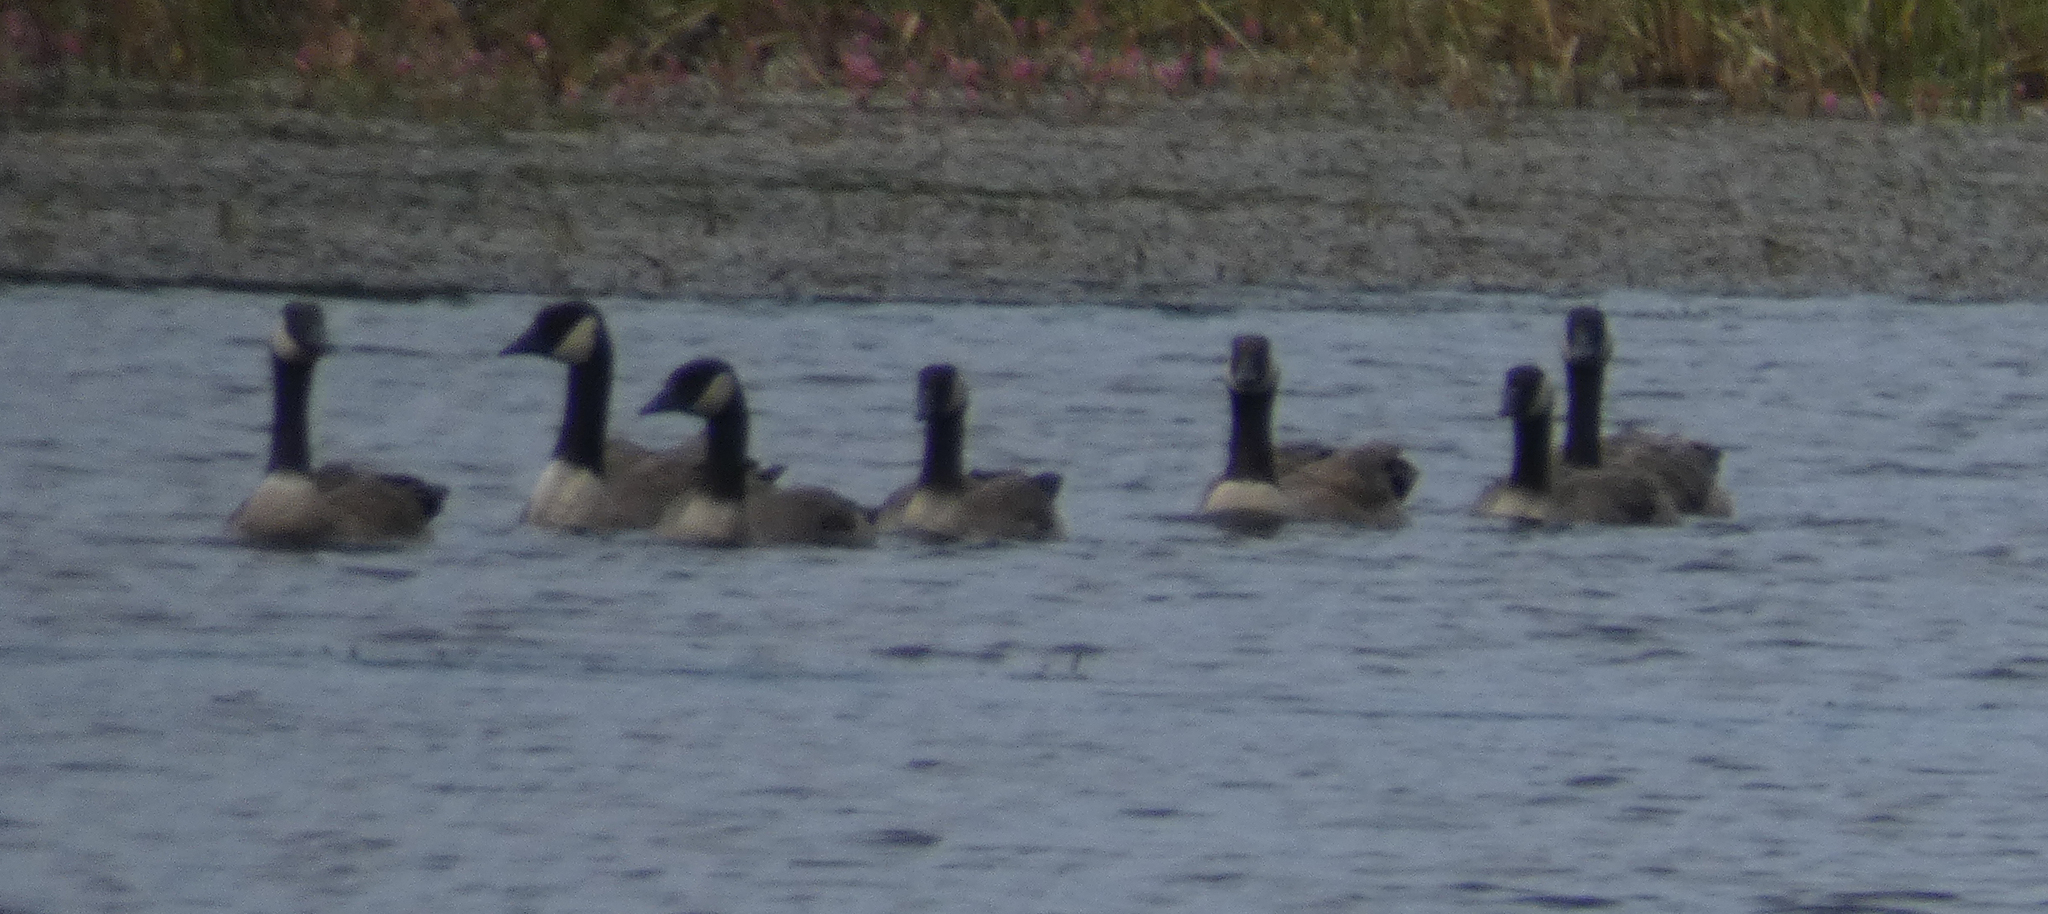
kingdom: Animalia
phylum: Chordata
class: Aves
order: Anseriformes
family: Anatidae
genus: Branta
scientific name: Branta canadensis
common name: Canada goose
